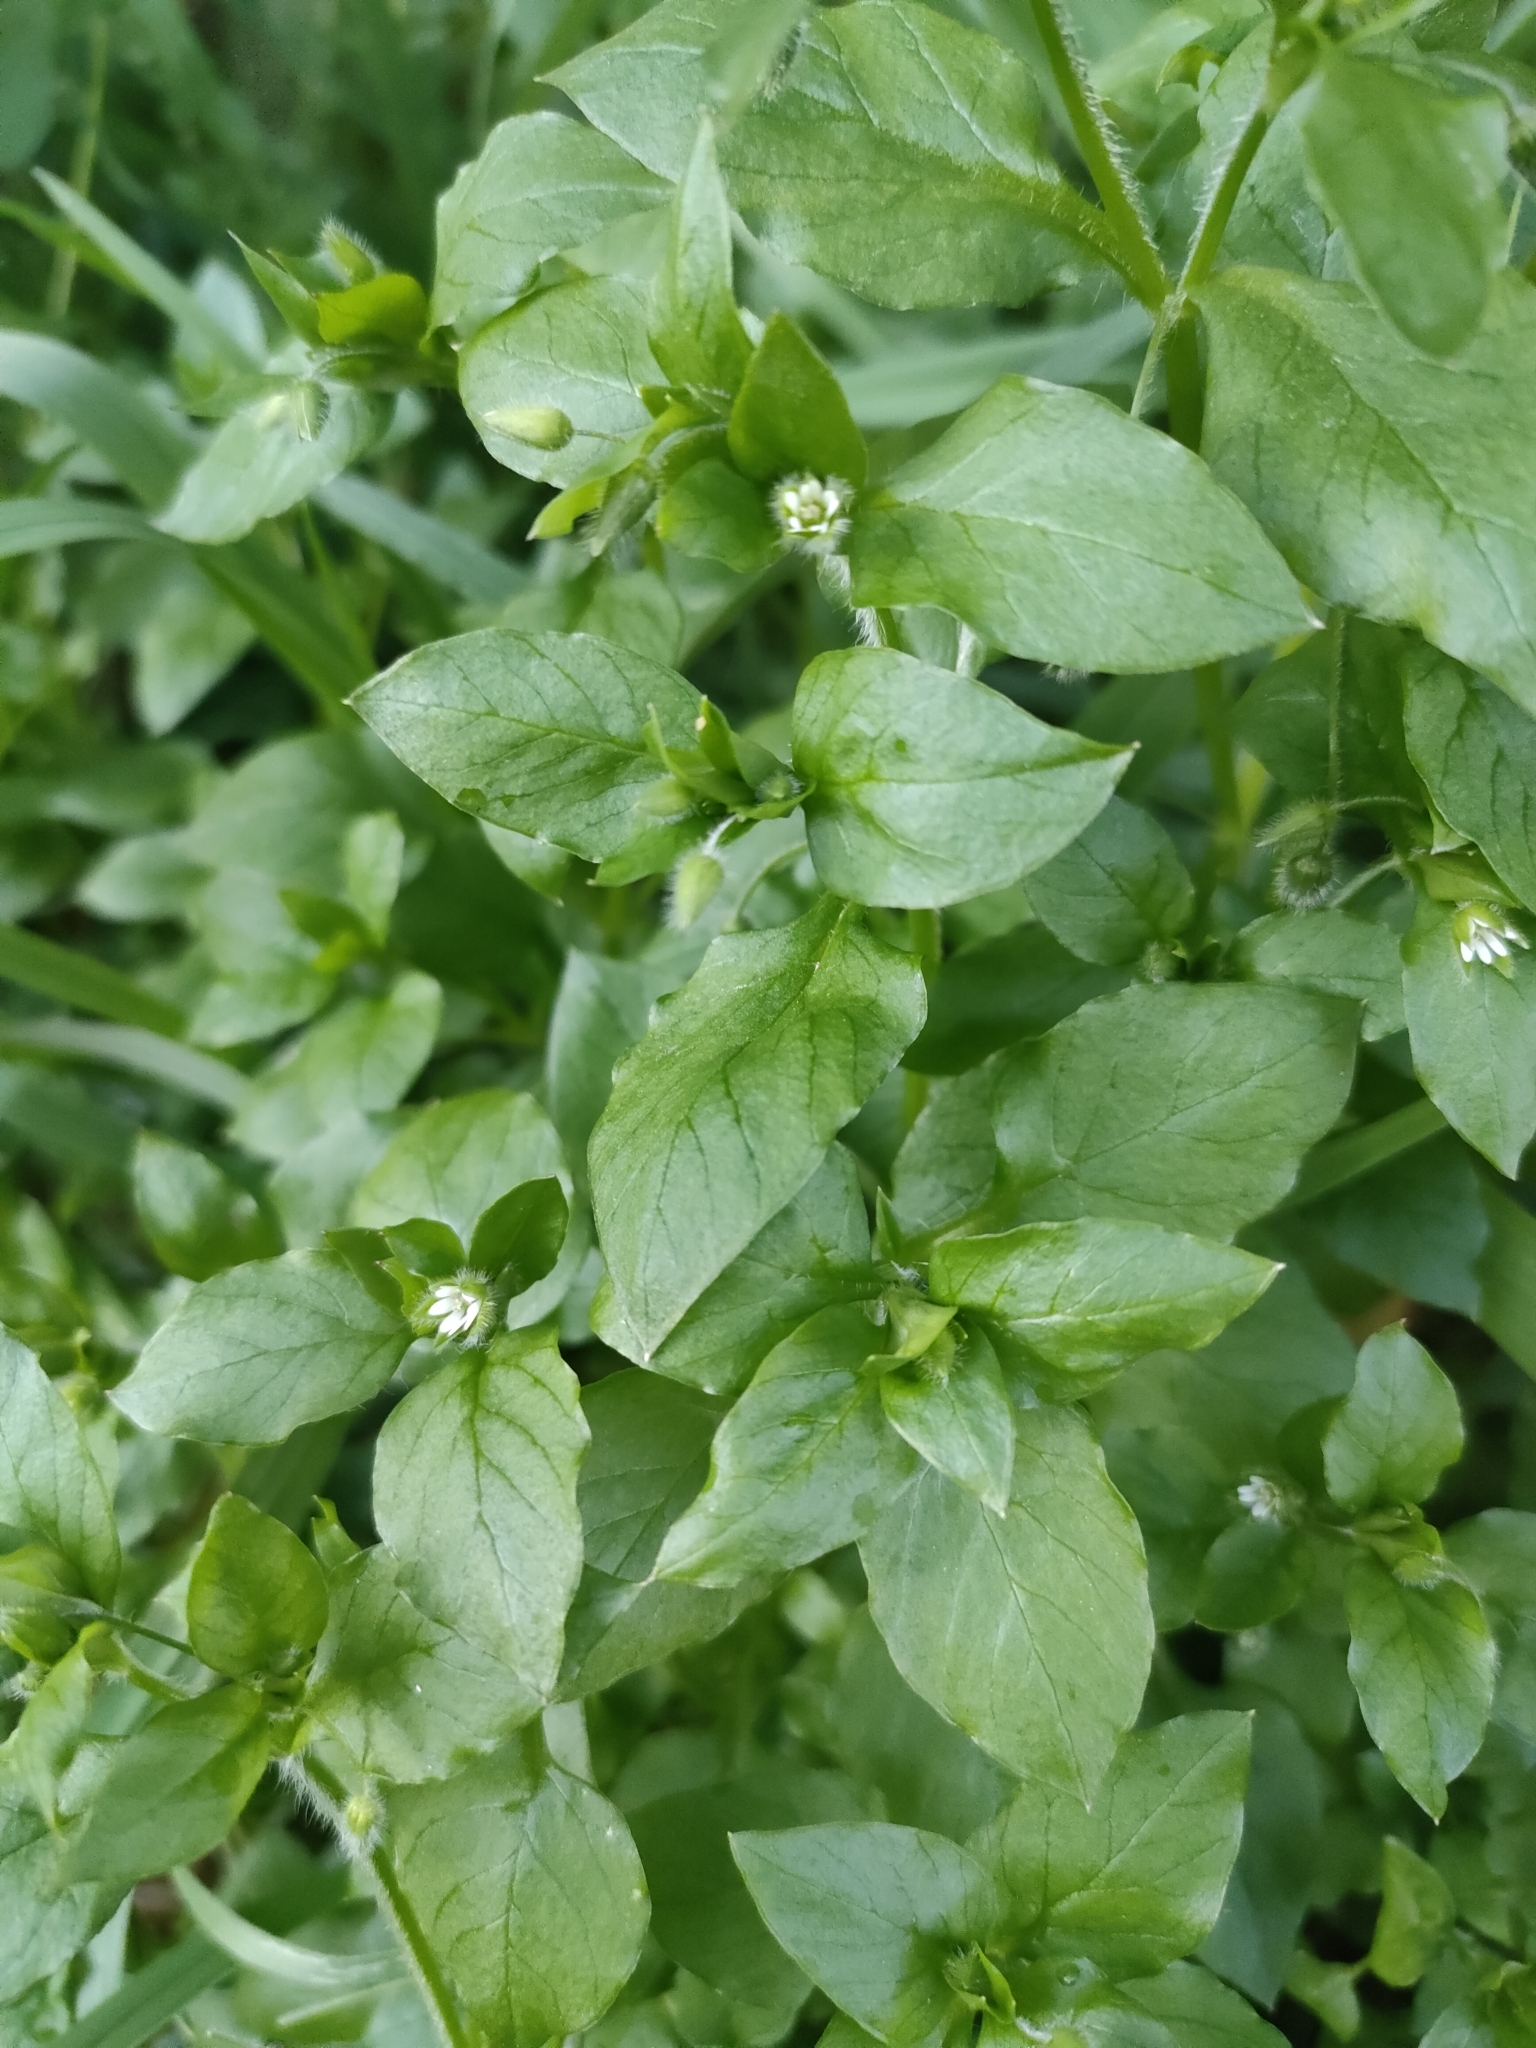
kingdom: Plantae
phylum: Tracheophyta
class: Magnoliopsida
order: Caryophyllales
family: Caryophyllaceae
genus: Stellaria
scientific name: Stellaria media
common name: Common chickweed
